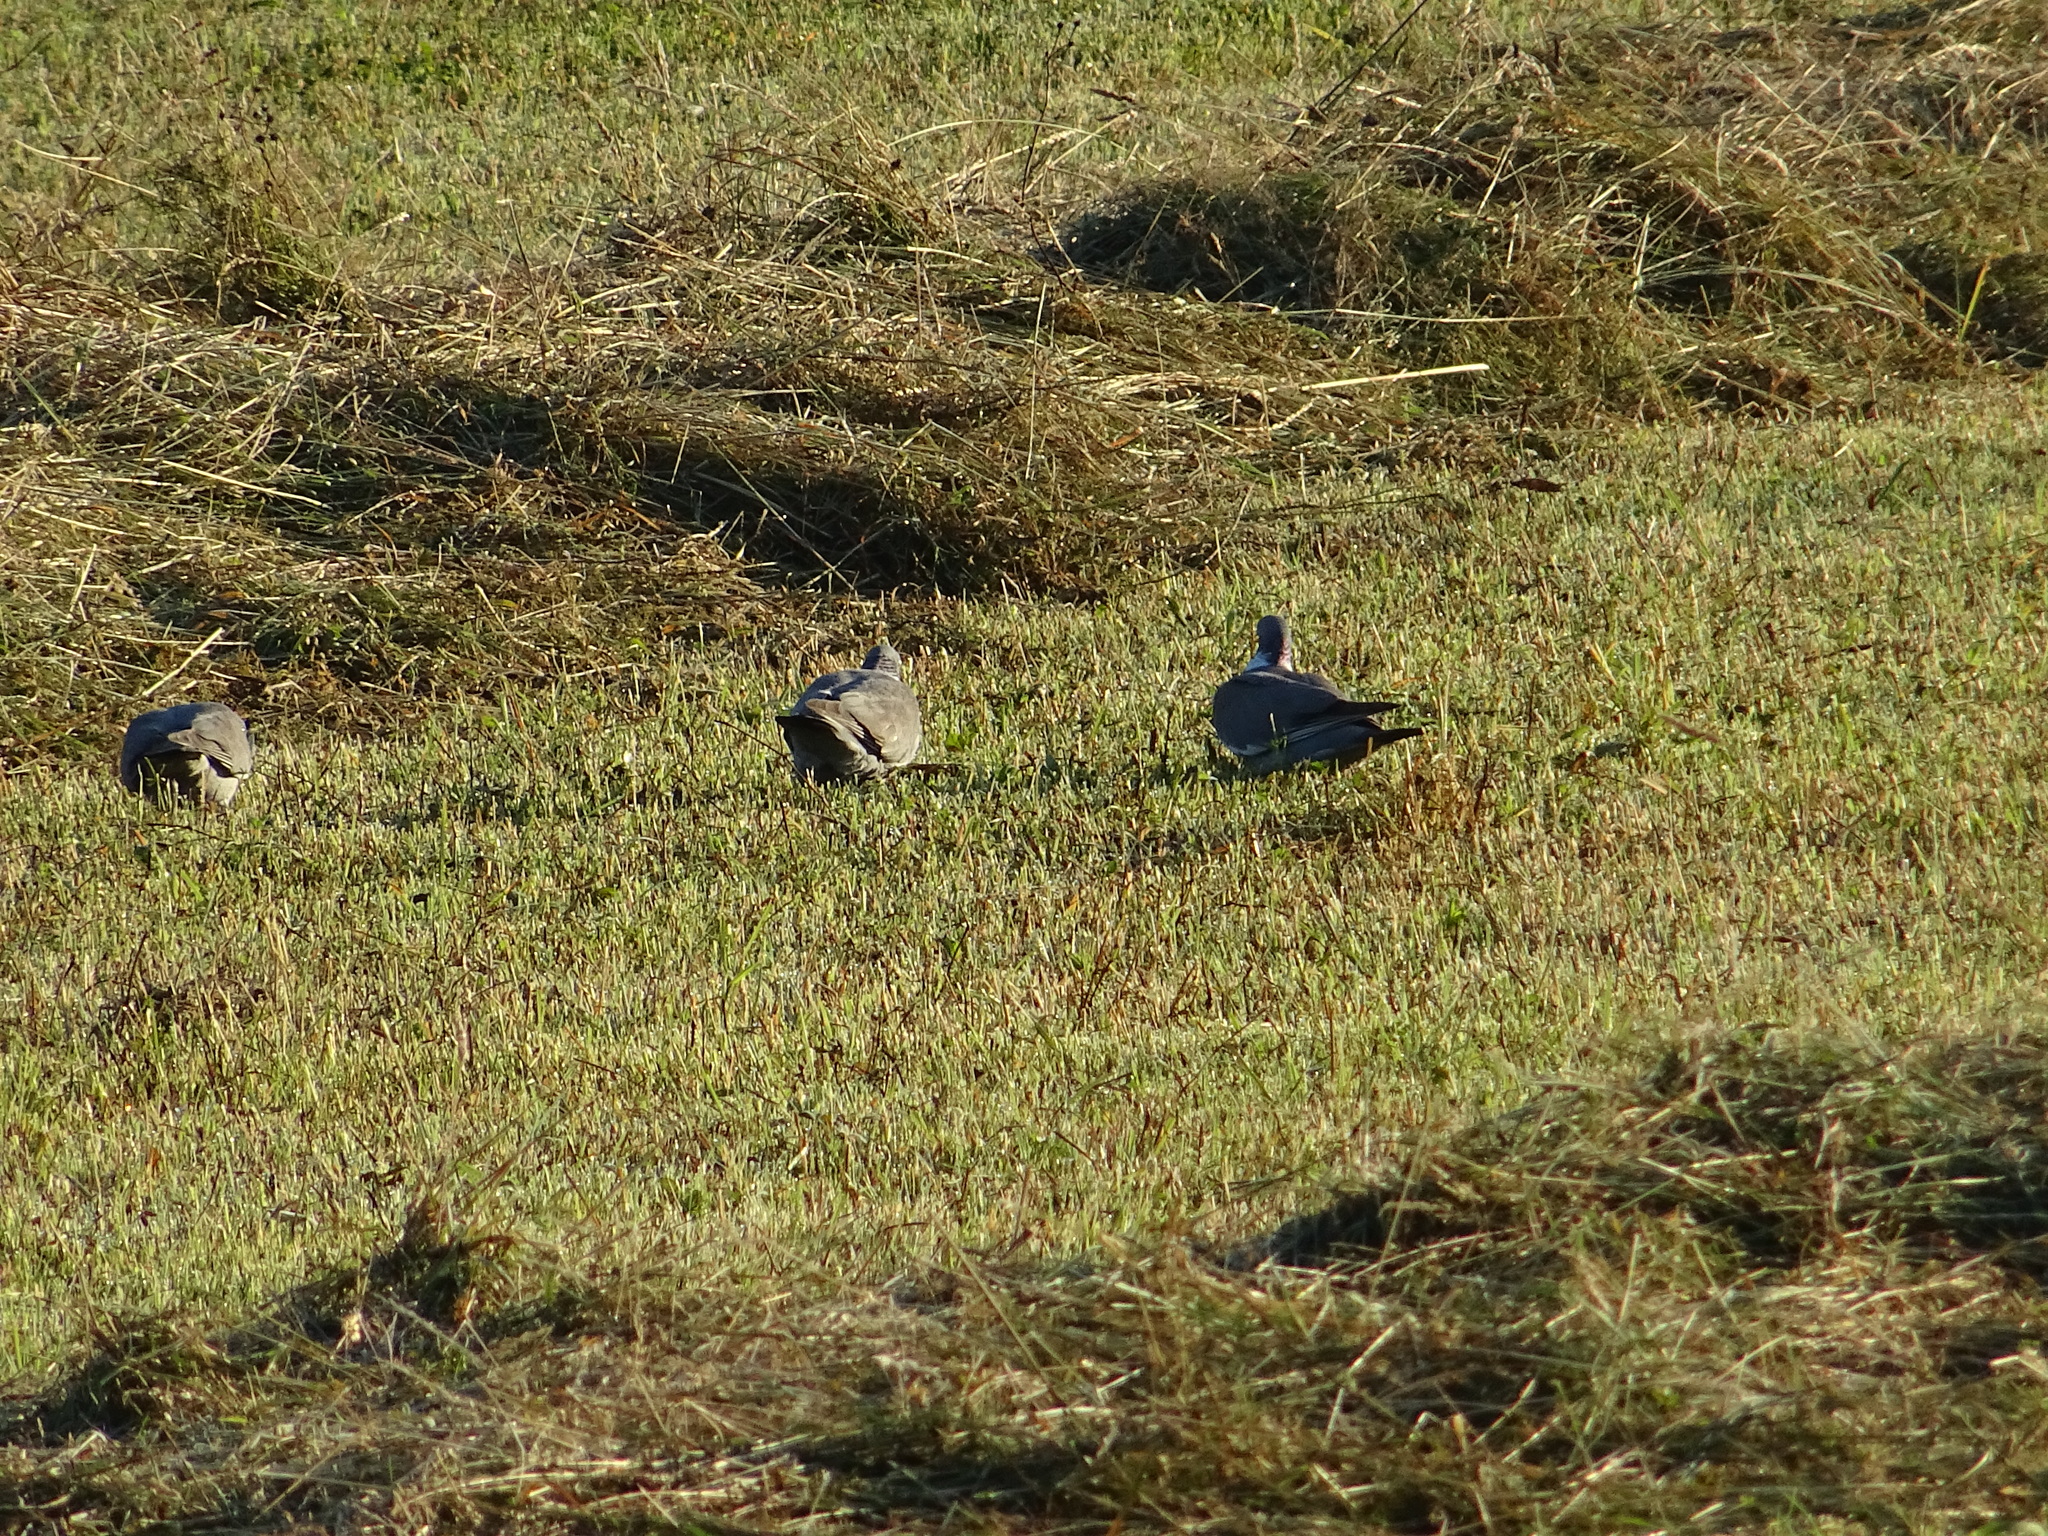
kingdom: Animalia
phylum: Chordata
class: Aves
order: Columbiformes
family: Columbidae
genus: Columba
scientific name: Columba palumbus
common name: Common wood pigeon
